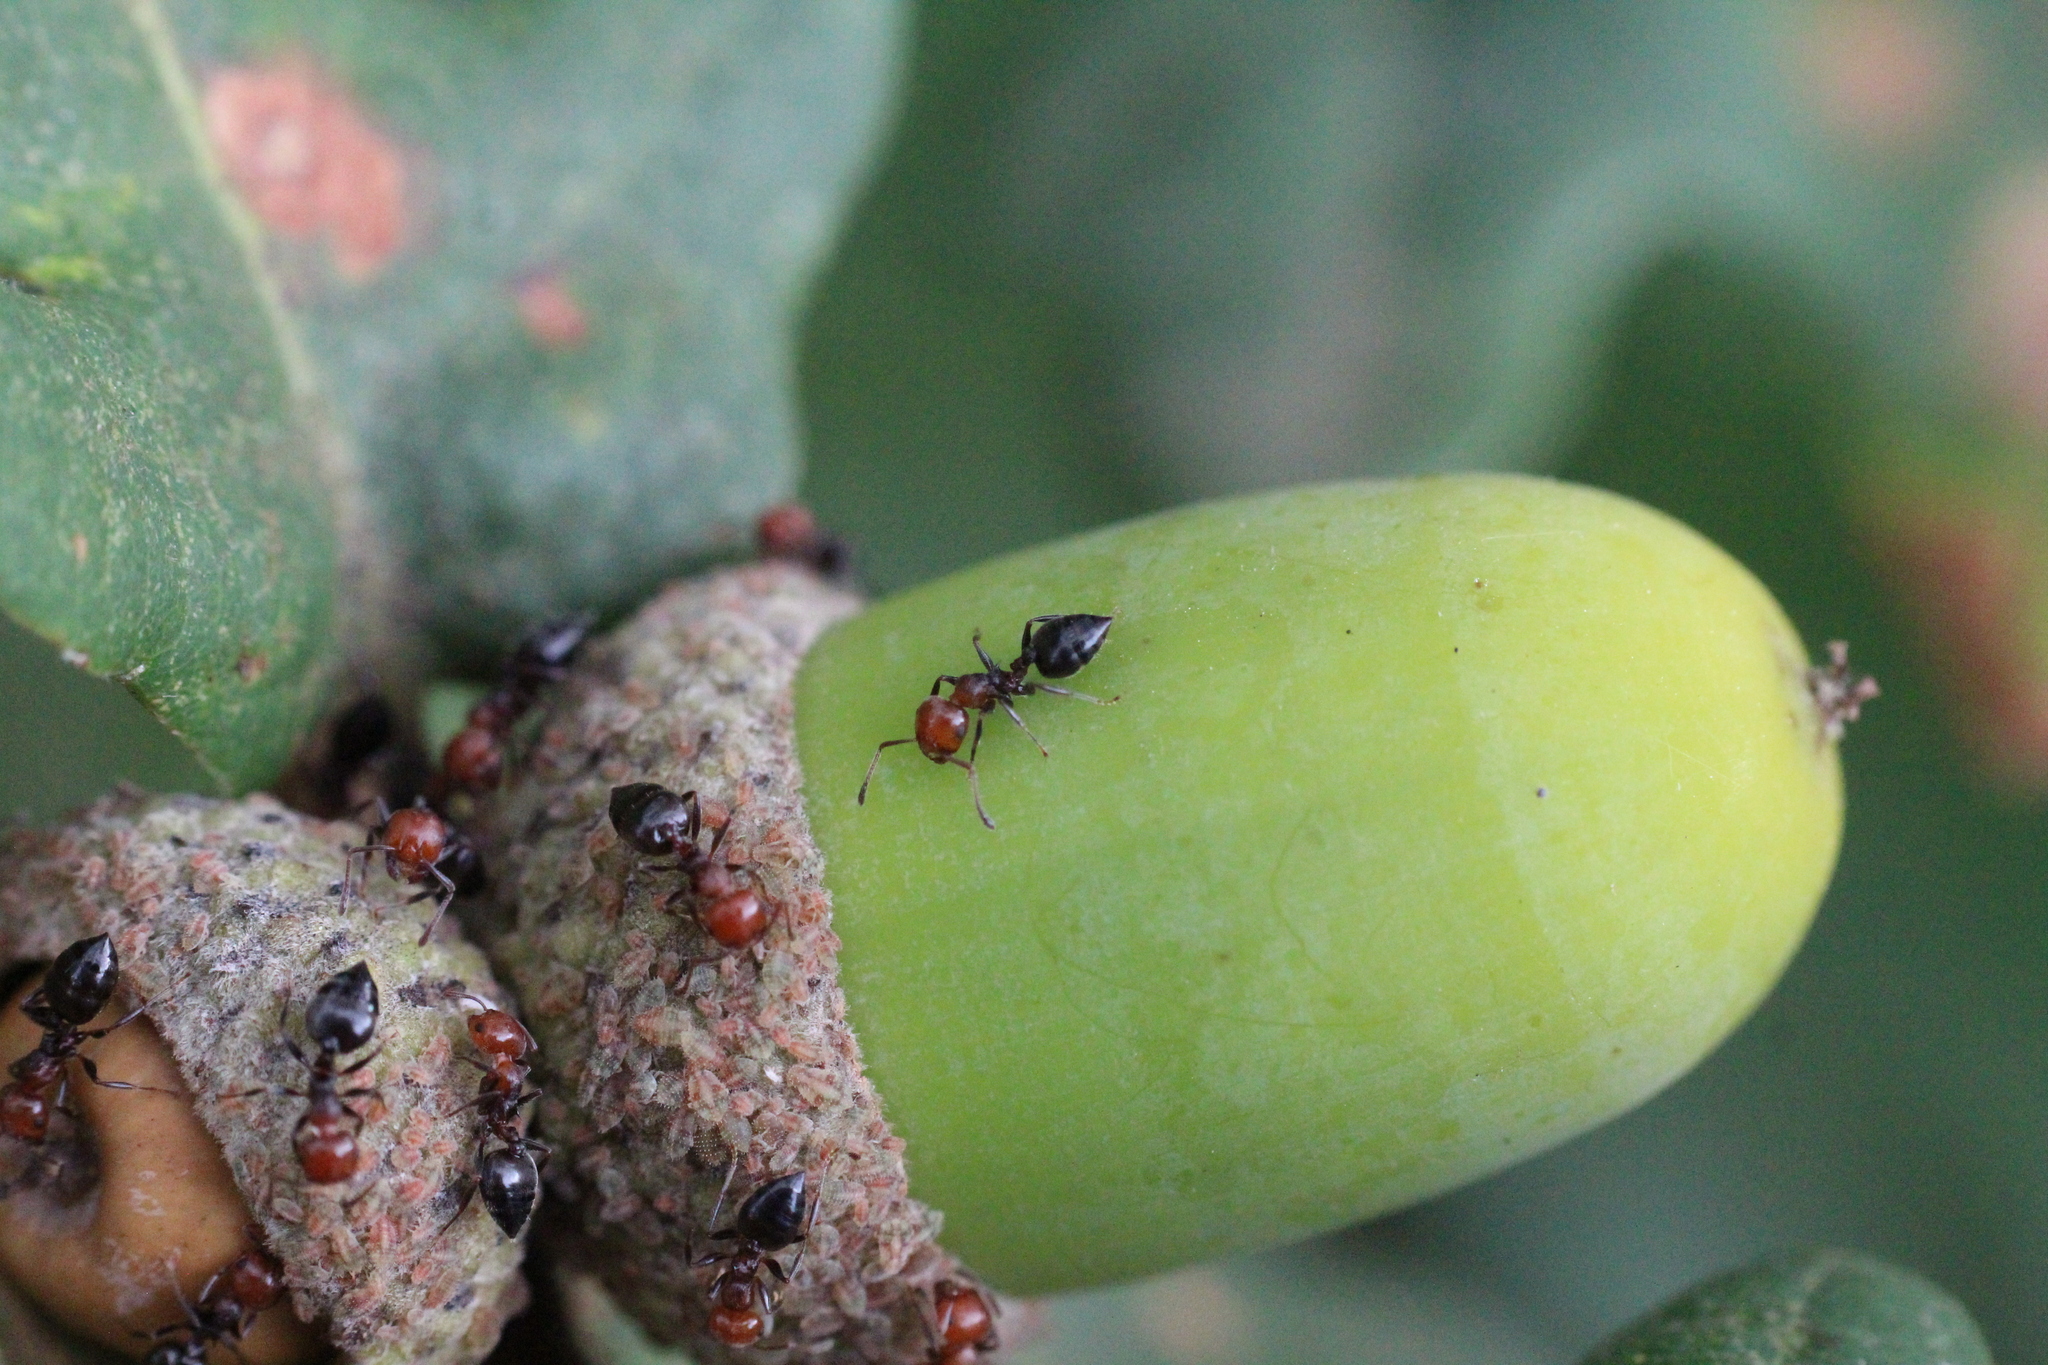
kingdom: Animalia
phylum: Arthropoda
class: Insecta
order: Hymenoptera
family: Formicidae
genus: Crematogaster
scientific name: Crematogaster scutellaris
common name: Fourmi du liège
